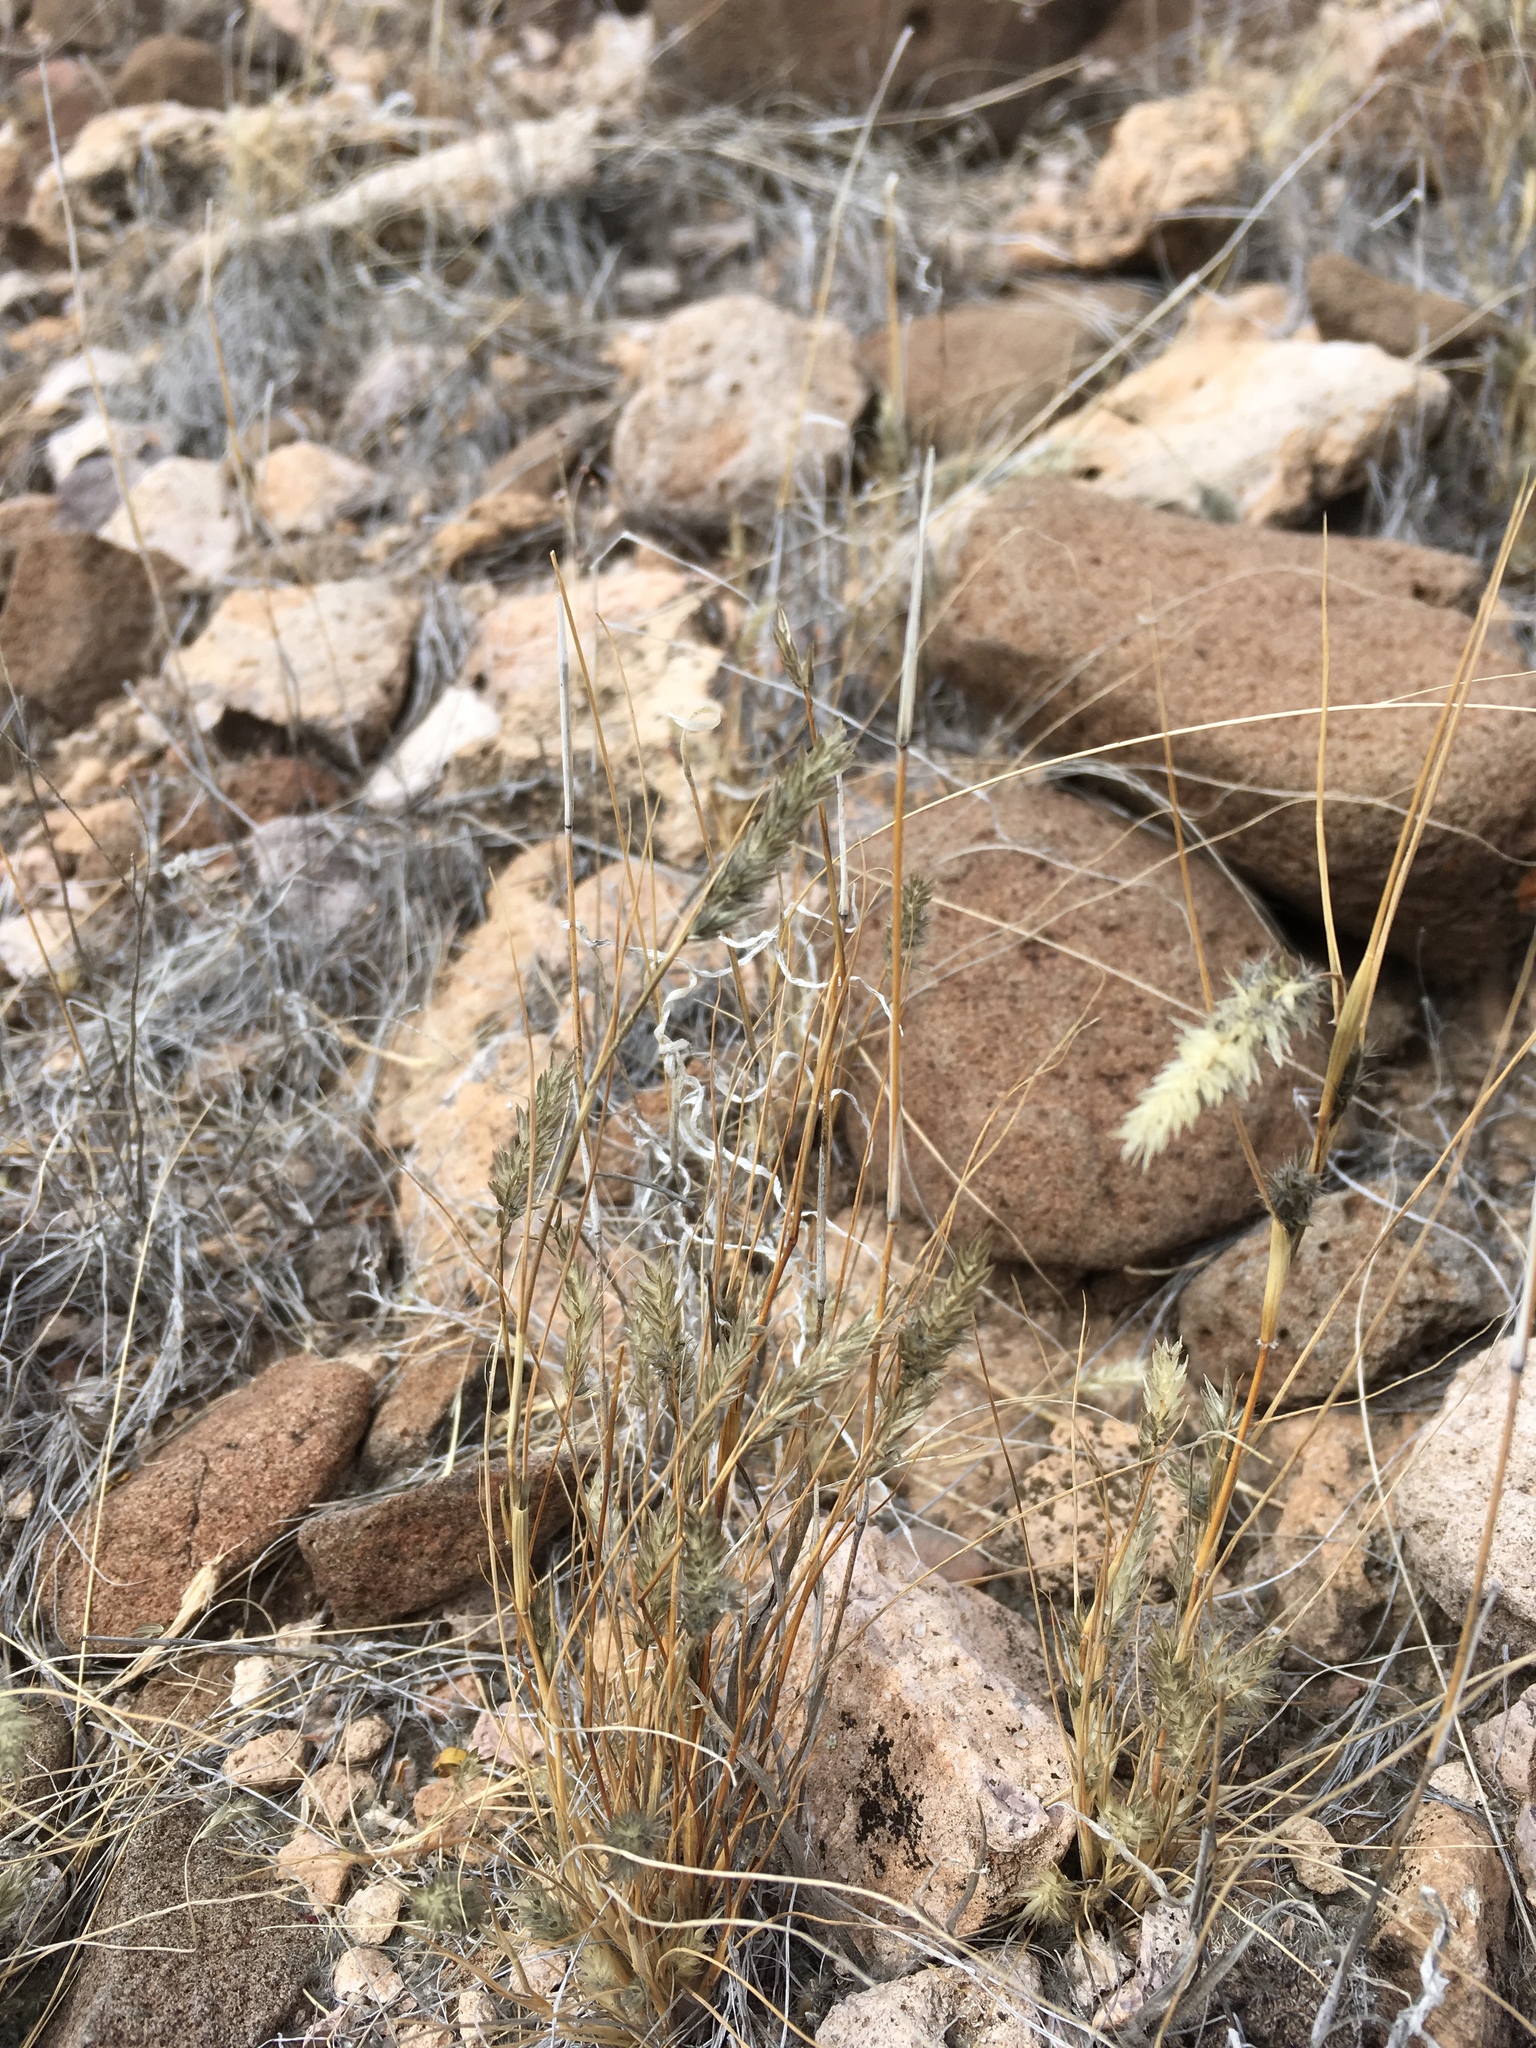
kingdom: Plantae
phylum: Tracheophyta
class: Liliopsida
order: Poales
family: Poaceae
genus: Enneapogon
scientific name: Enneapogon desvauxii
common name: Feather pappus grass
